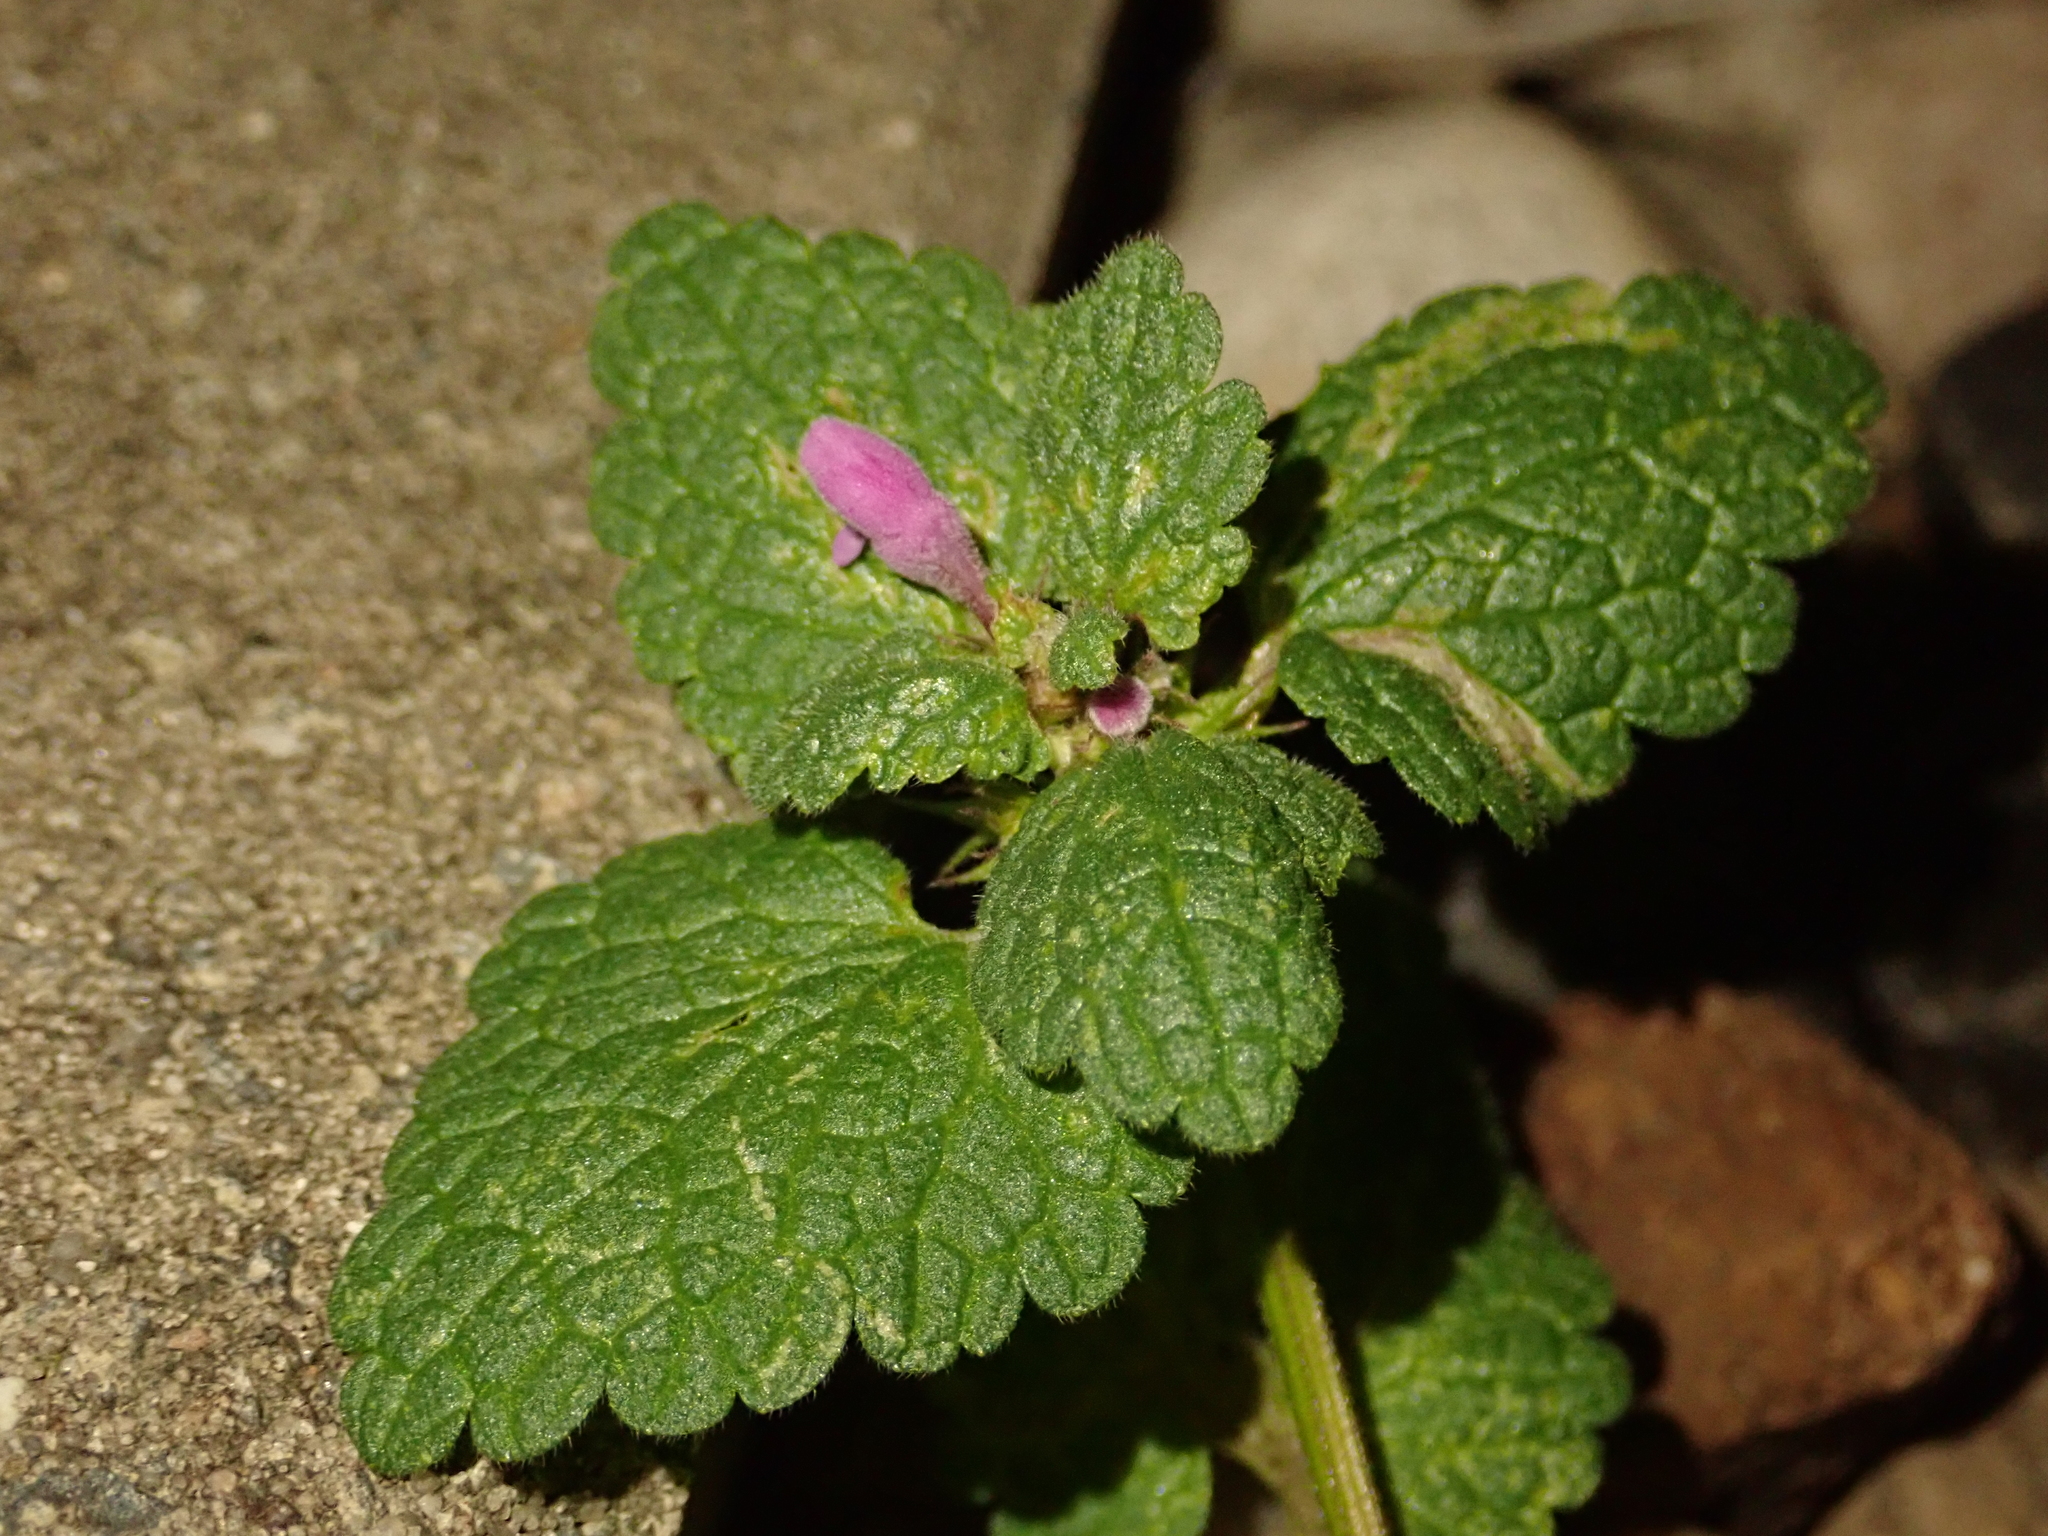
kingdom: Plantae
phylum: Tracheophyta
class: Magnoliopsida
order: Lamiales
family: Lamiaceae
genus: Lamium
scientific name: Lamium purpureum
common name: Red dead-nettle
